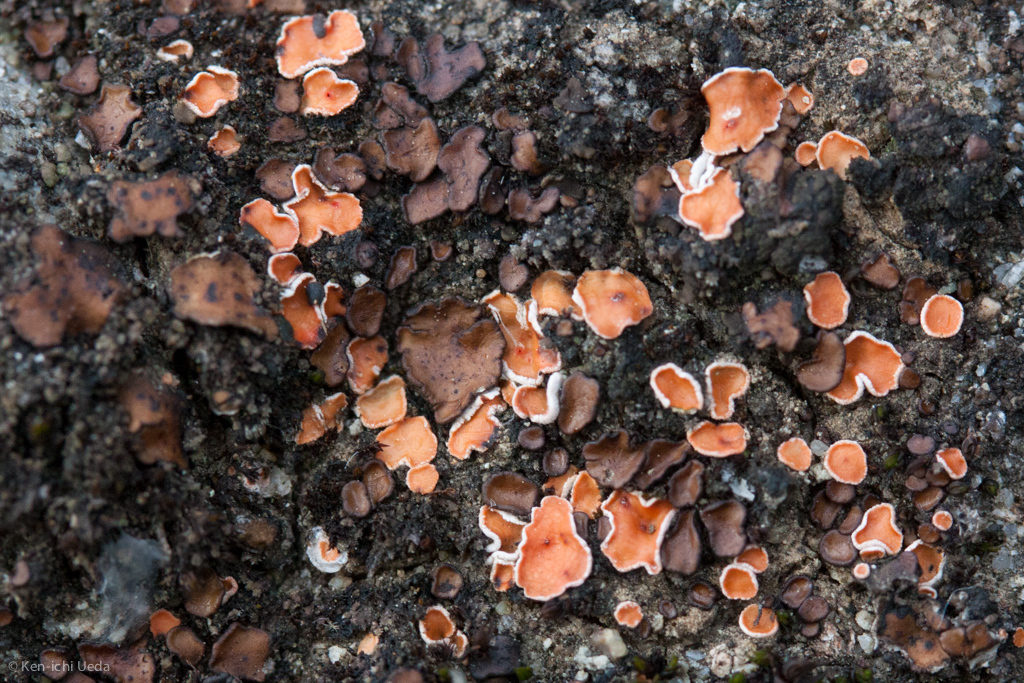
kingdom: Fungi
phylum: Ascomycota
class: Lecanoromycetes
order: Lecanorales
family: Psoraceae
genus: Psora
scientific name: Psora decipiens
